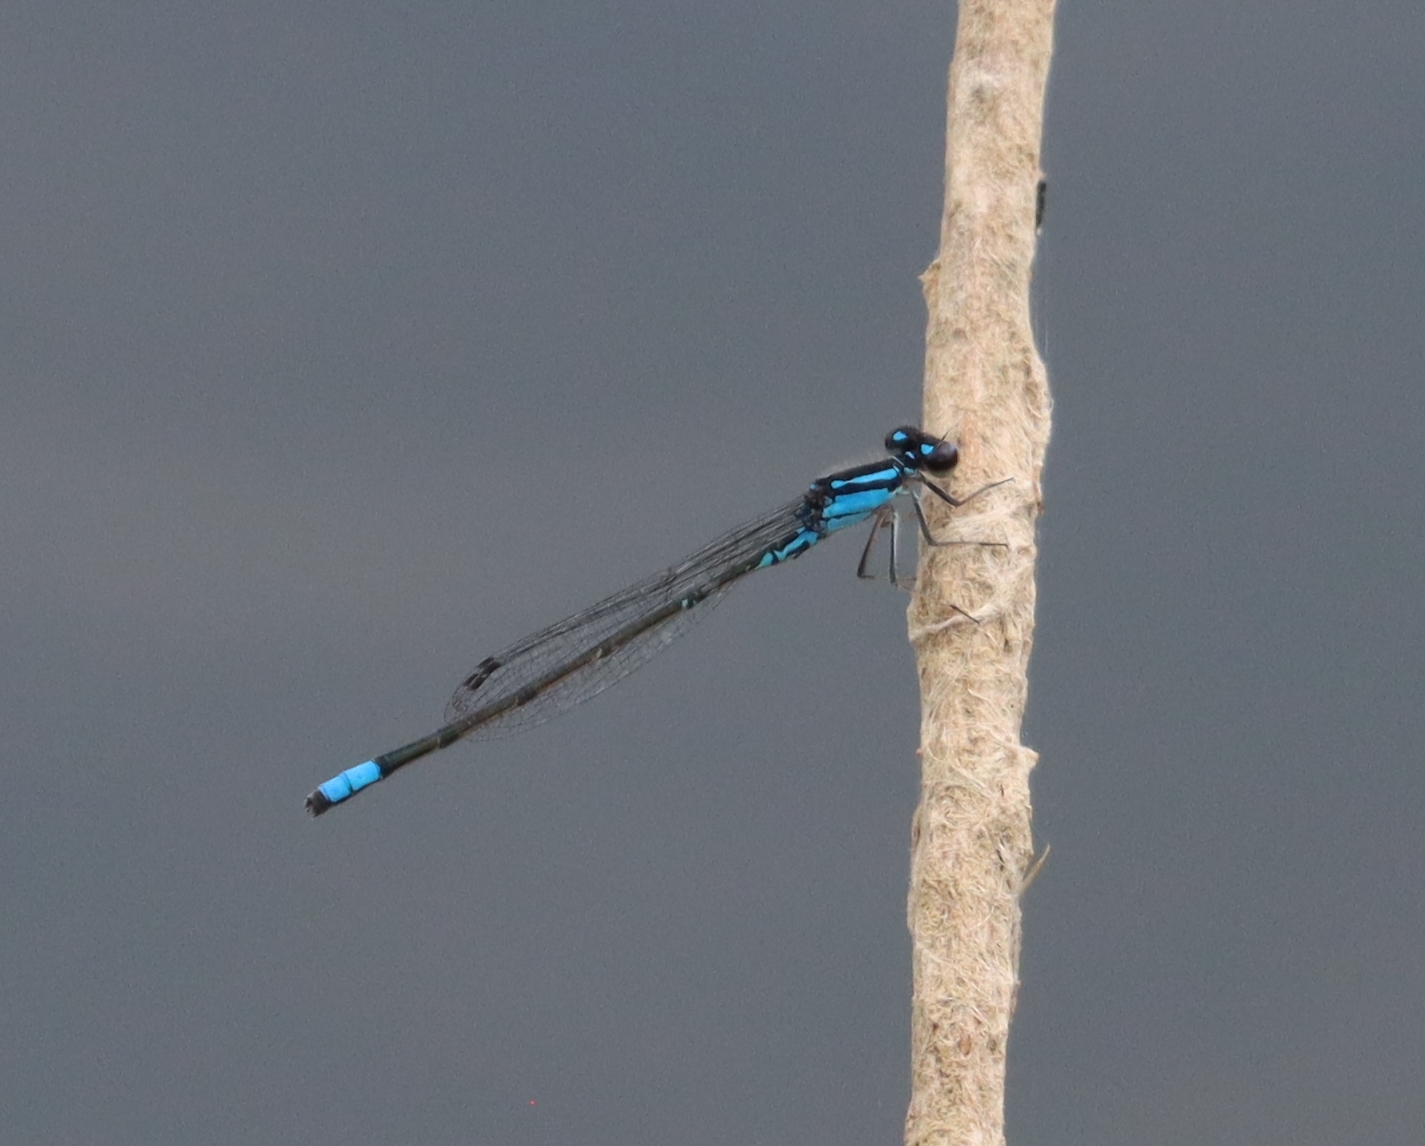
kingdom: Animalia
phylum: Arthropoda
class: Insecta
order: Odonata
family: Coenagrionidae
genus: Enallagma
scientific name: Enallagma geminatum
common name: Skimming bluet
